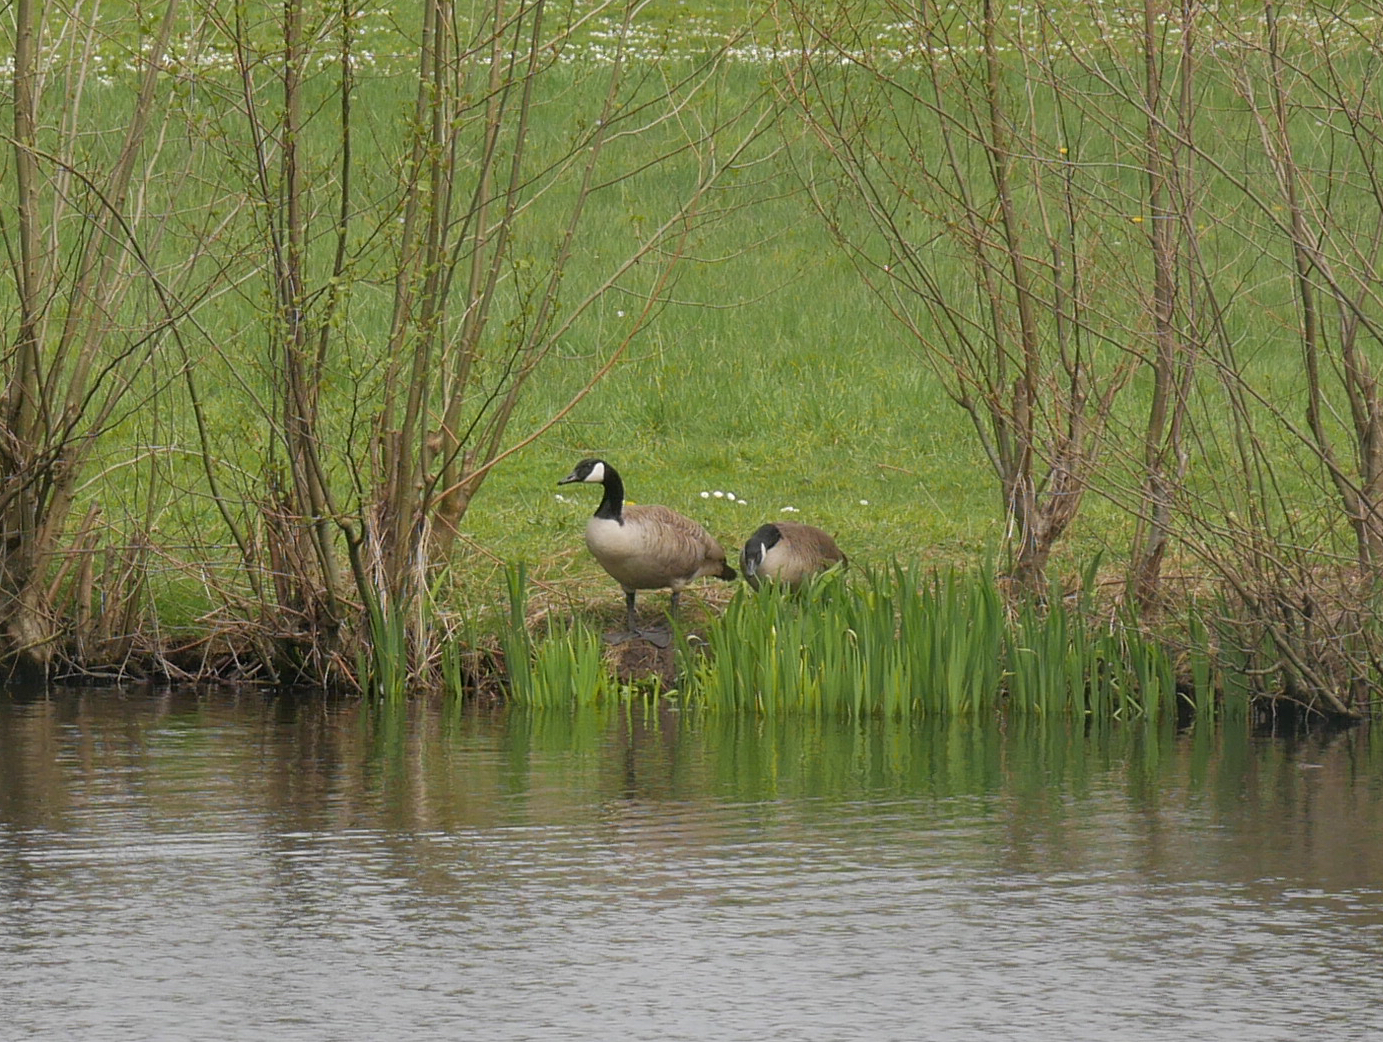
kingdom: Animalia
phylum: Chordata
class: Aves
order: Anseriformes
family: Anatidae
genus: Branta
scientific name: Branta canadensis
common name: Canada goose
